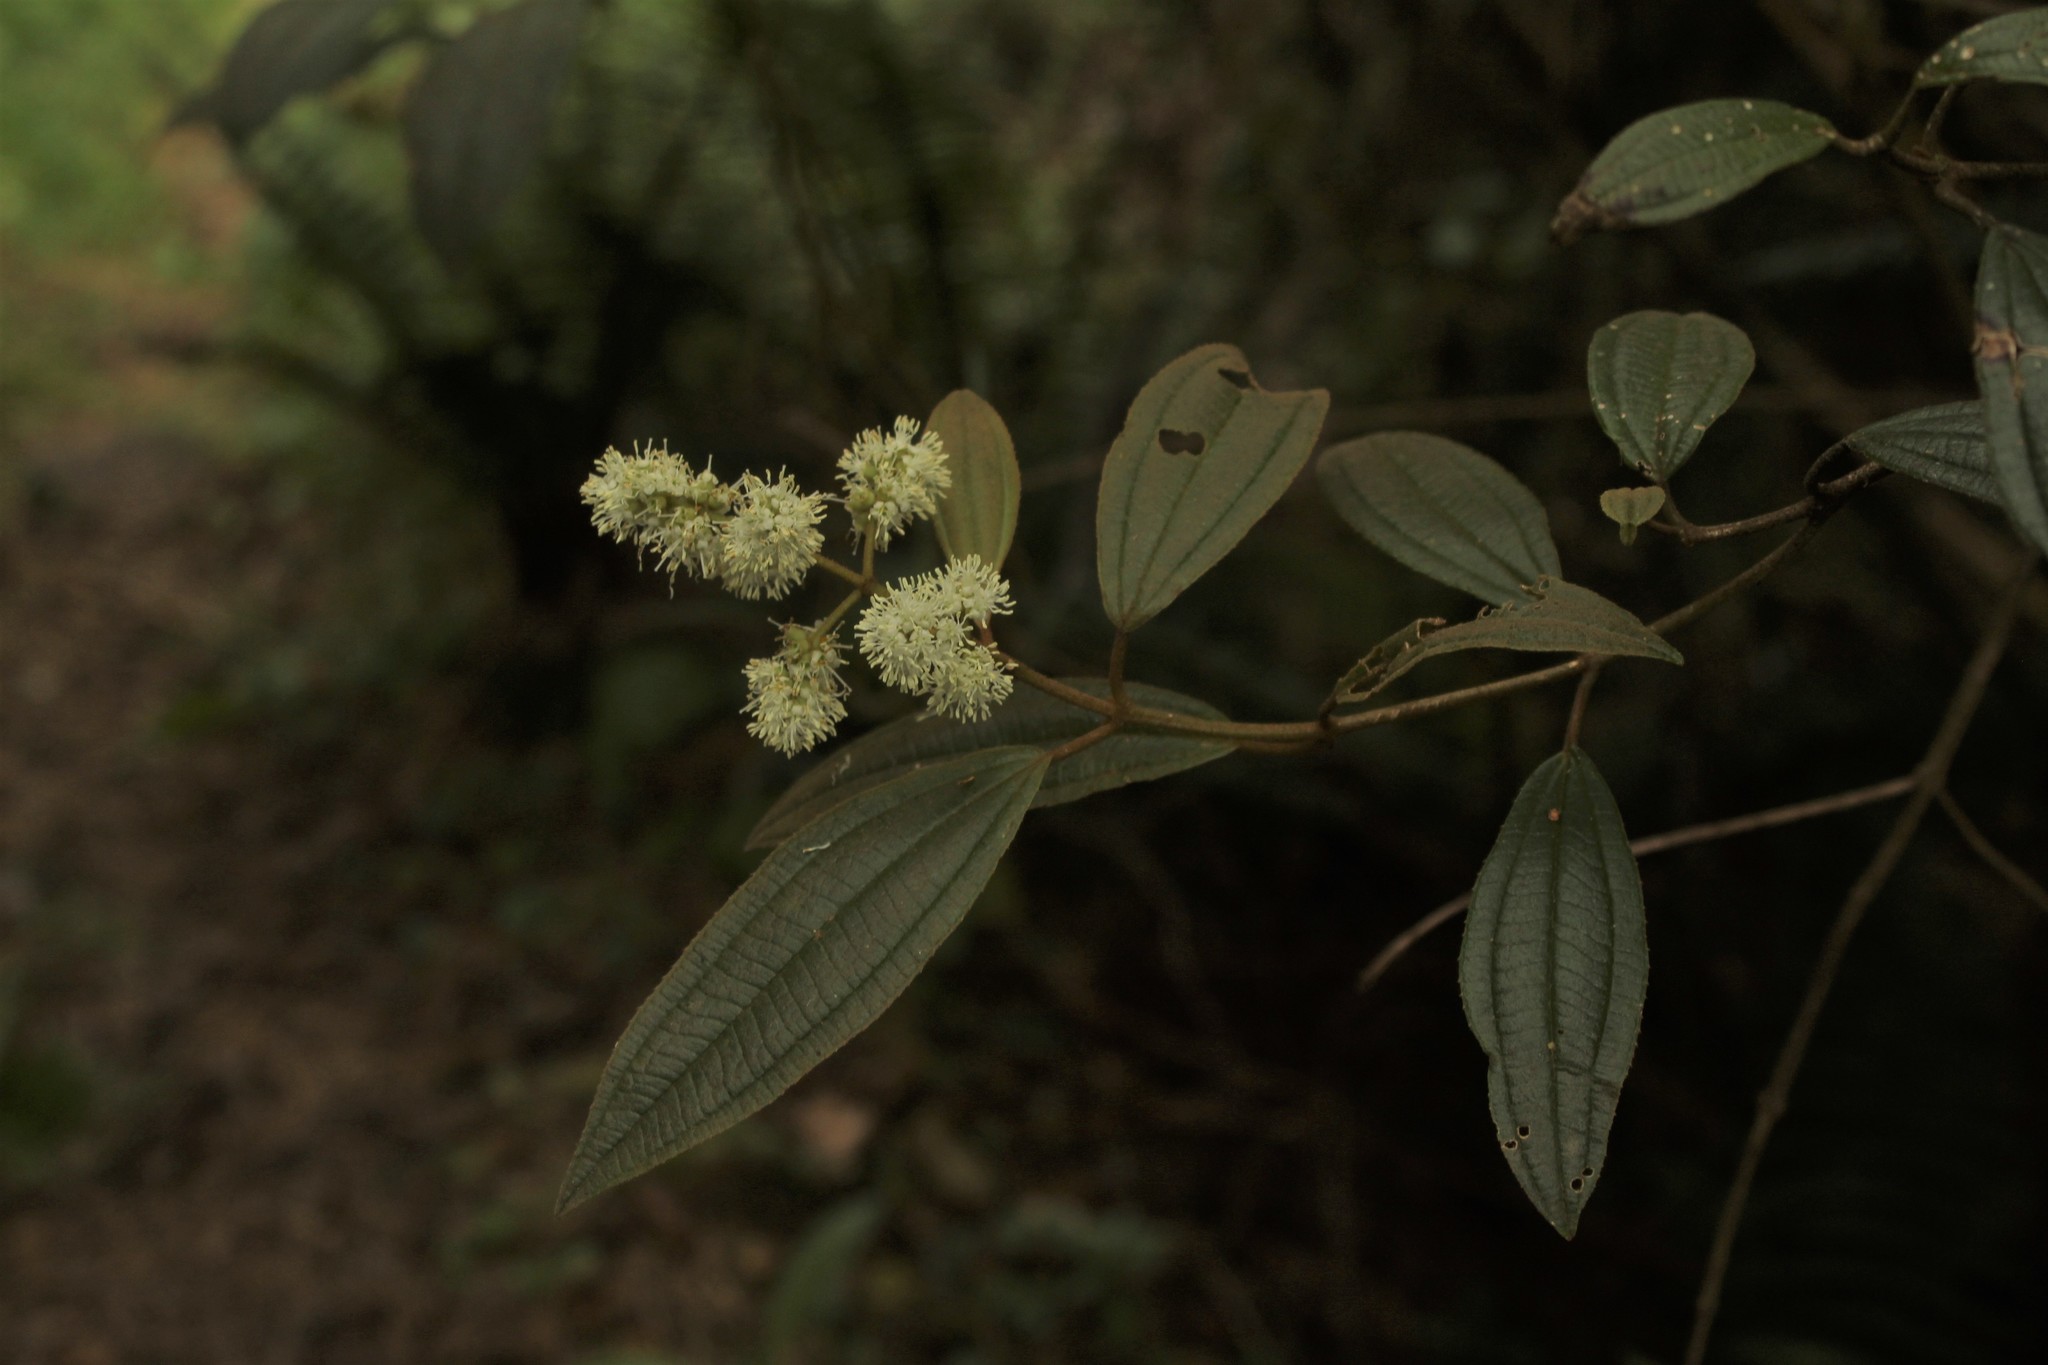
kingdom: Plantae
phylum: Tracheophyta
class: Magnoliopsida
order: Myrtales
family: Melastomataceae
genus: Miconia
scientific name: Miconia cataractae
